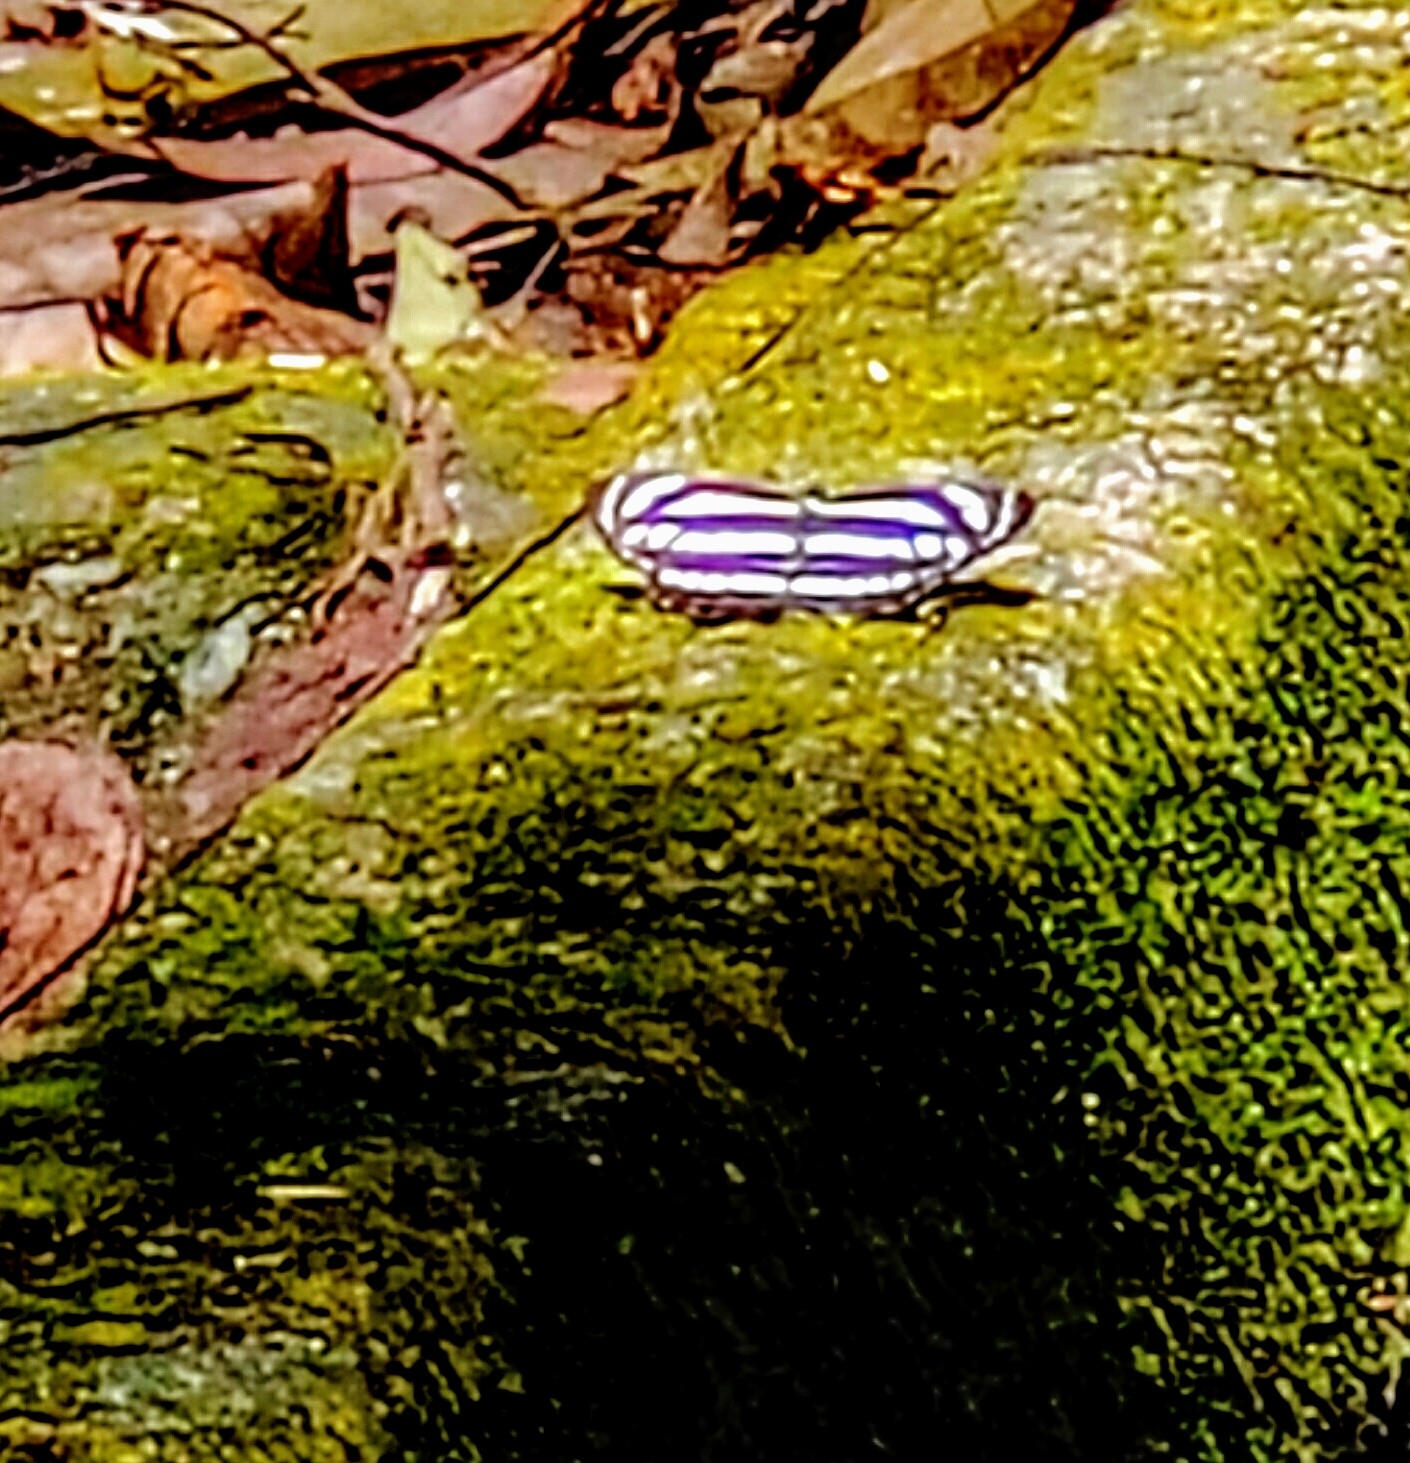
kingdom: Animalia
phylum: Arthropoda
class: Insecta
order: Lepidoptera
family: Nymphalidae
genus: Neptis
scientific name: Neptis hylas
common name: Common sailer
